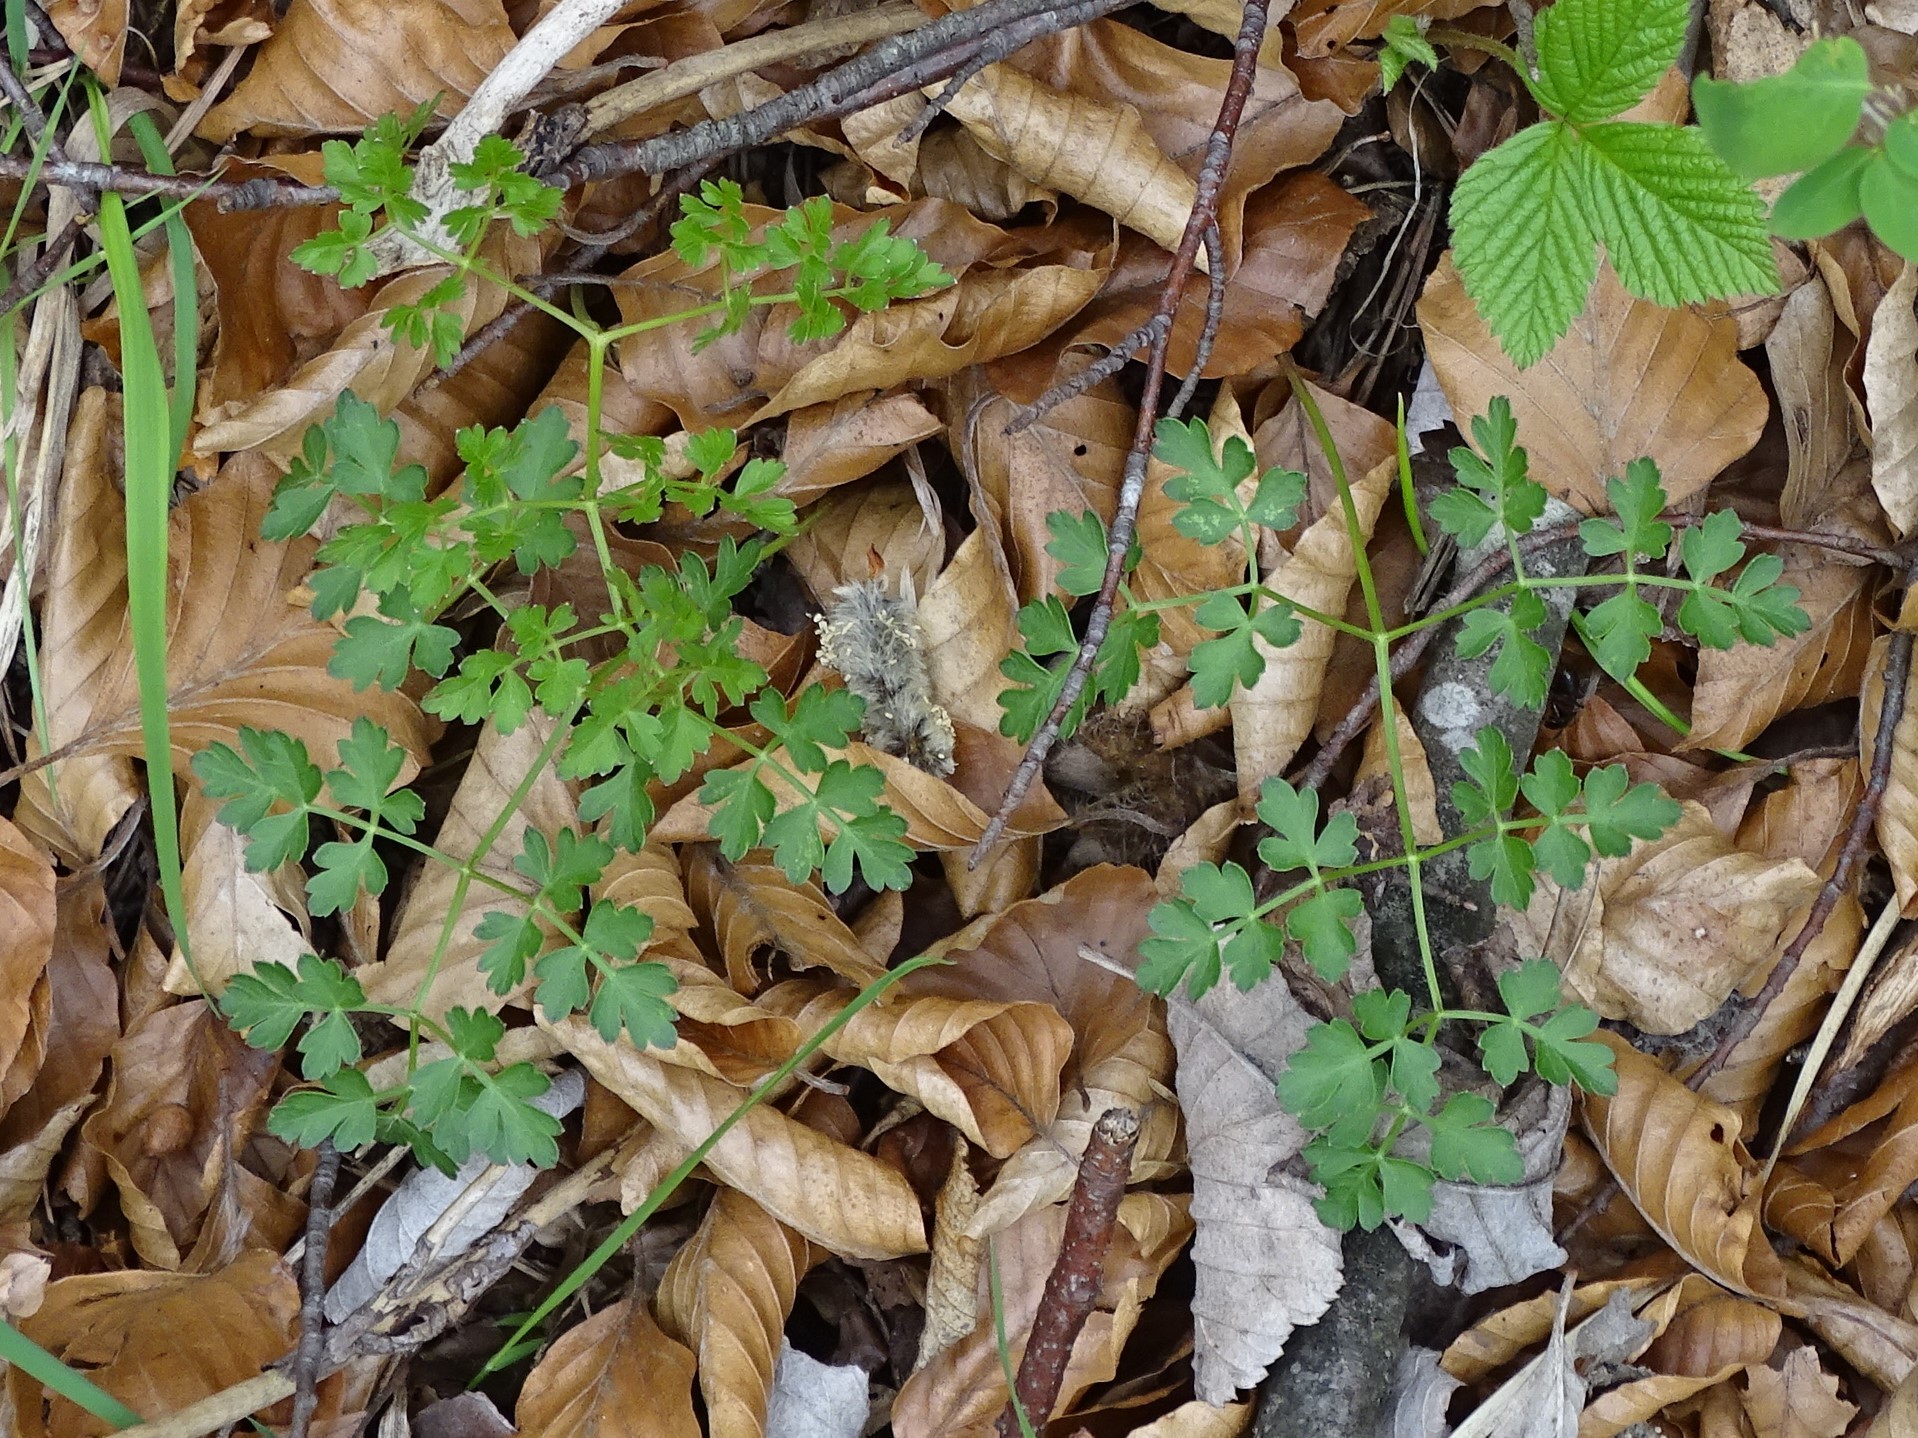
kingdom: Plantae
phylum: Tracheophyta
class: Magnoliopsida
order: Apiales
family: Apiaceae
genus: Oreoselinum
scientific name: Oreoselinum nigrum
